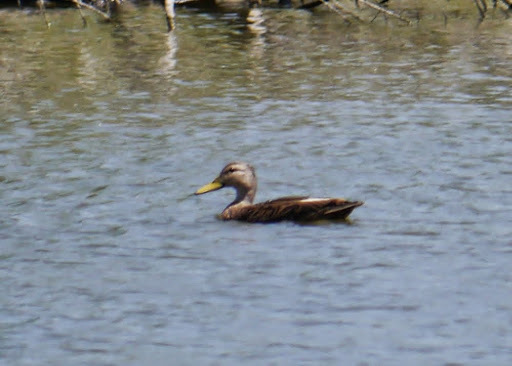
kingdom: Animalia
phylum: Chordata
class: Aves
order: Anseriformes
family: Anatidae
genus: Anas
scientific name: Anas fulvigula
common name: Mottled duck
